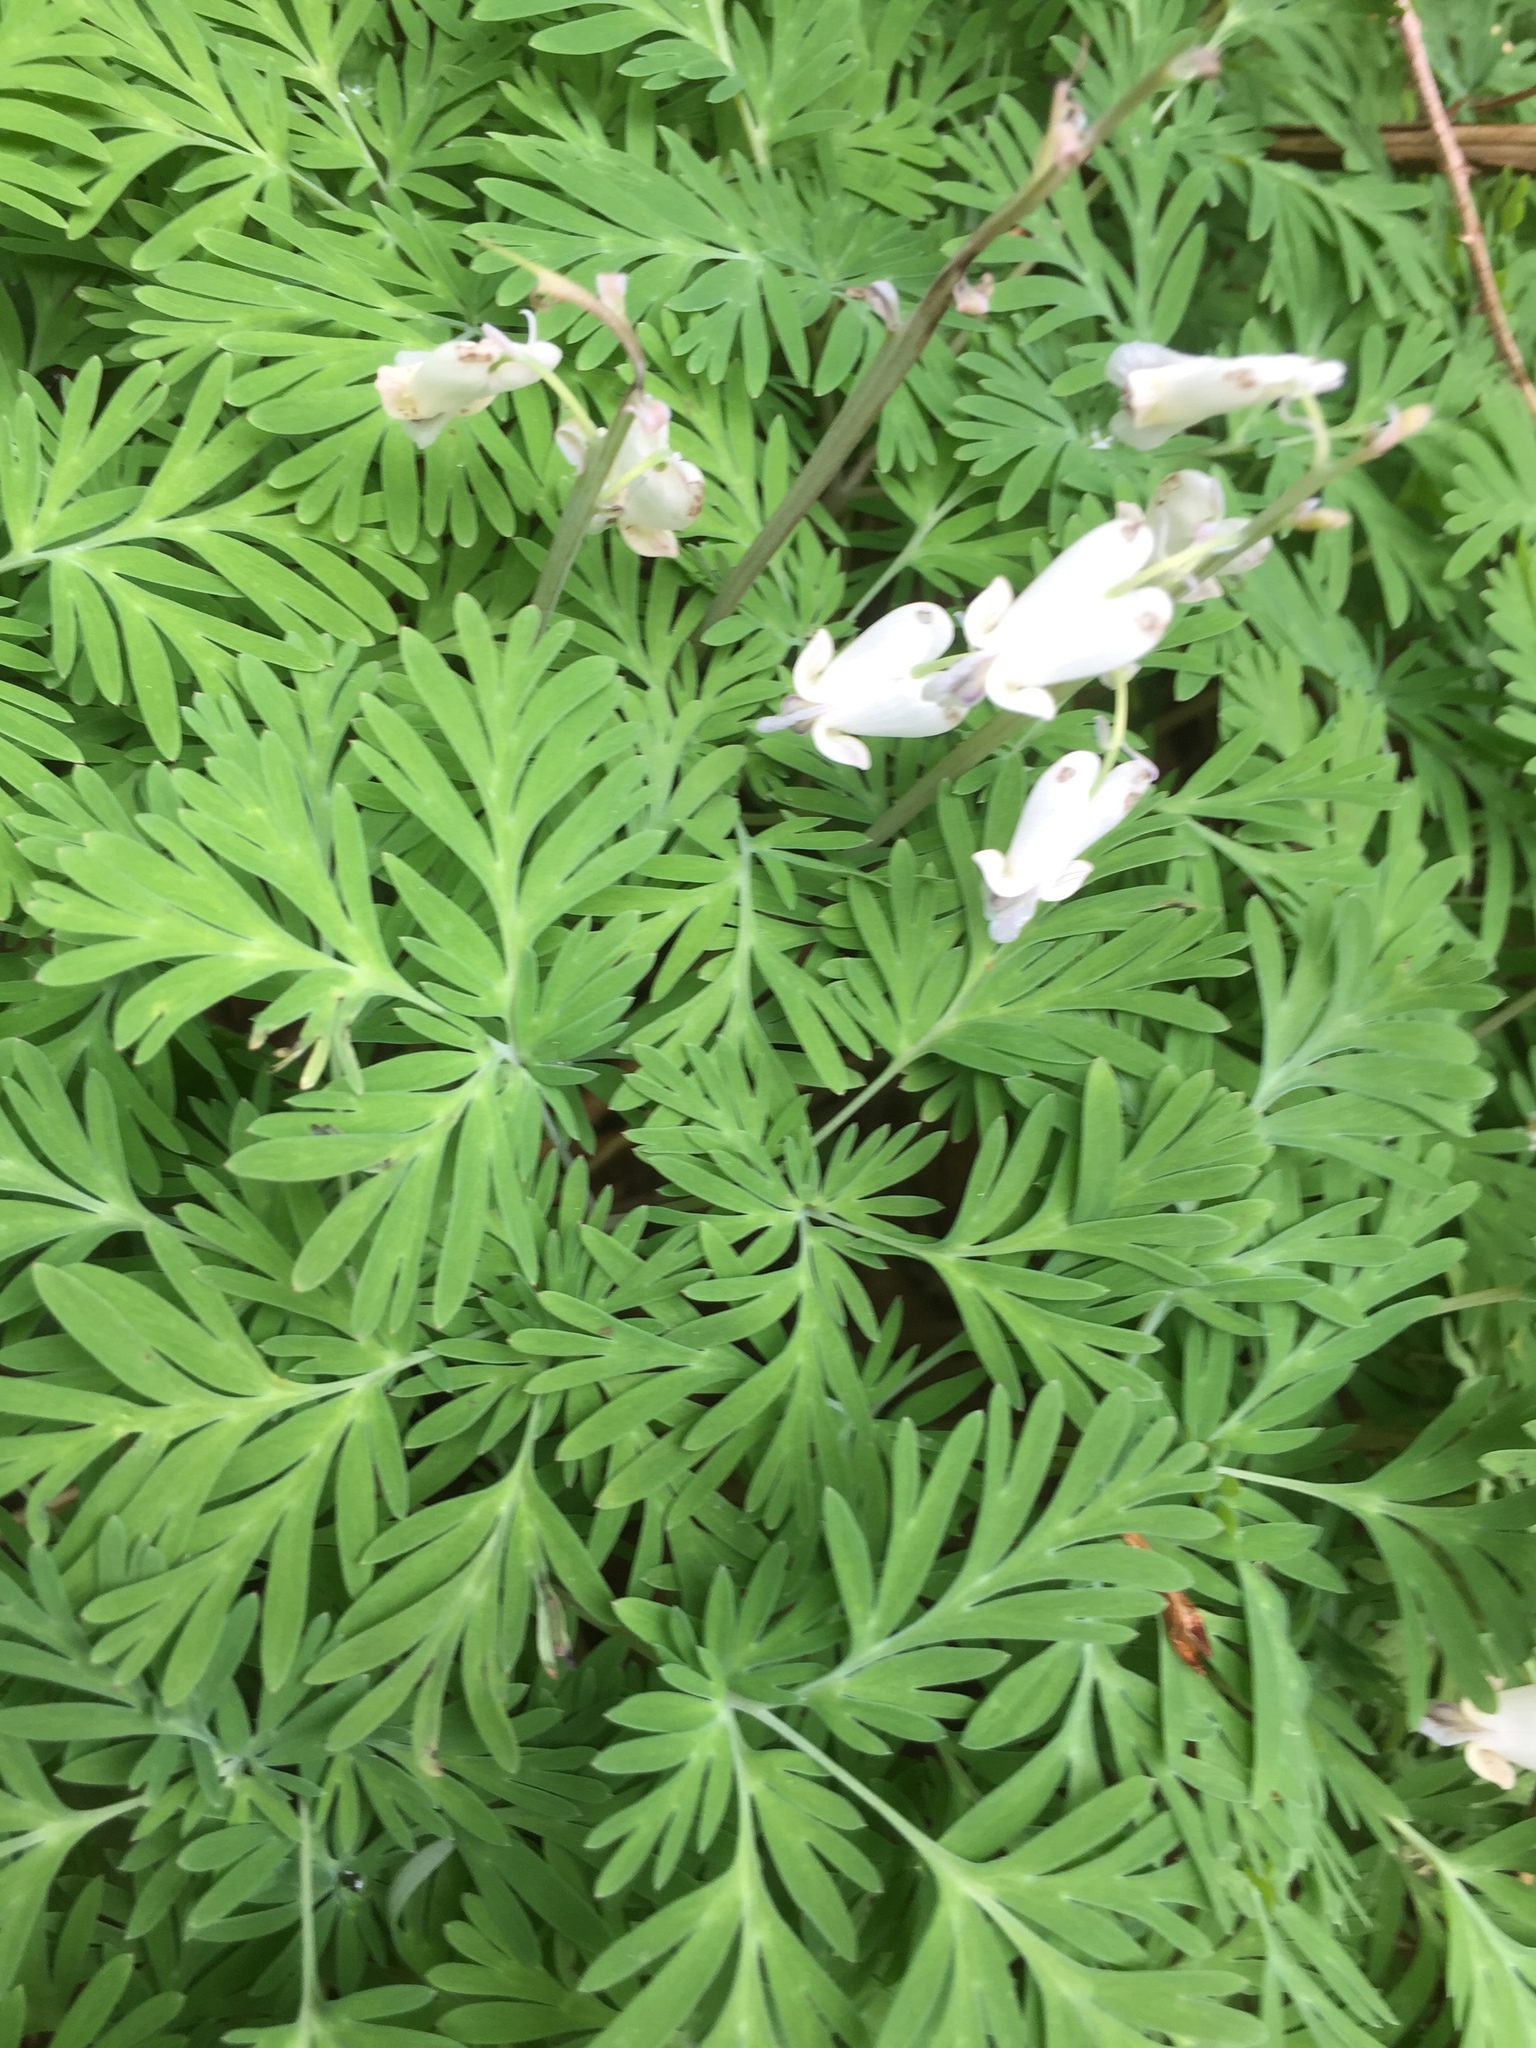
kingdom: Plantae
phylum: Tracheophyta
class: Magnoliopsida
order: Ranunculales
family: Papaveraceae
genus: Dicentra
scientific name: Dicentra canadensis
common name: Squirrel-corn
